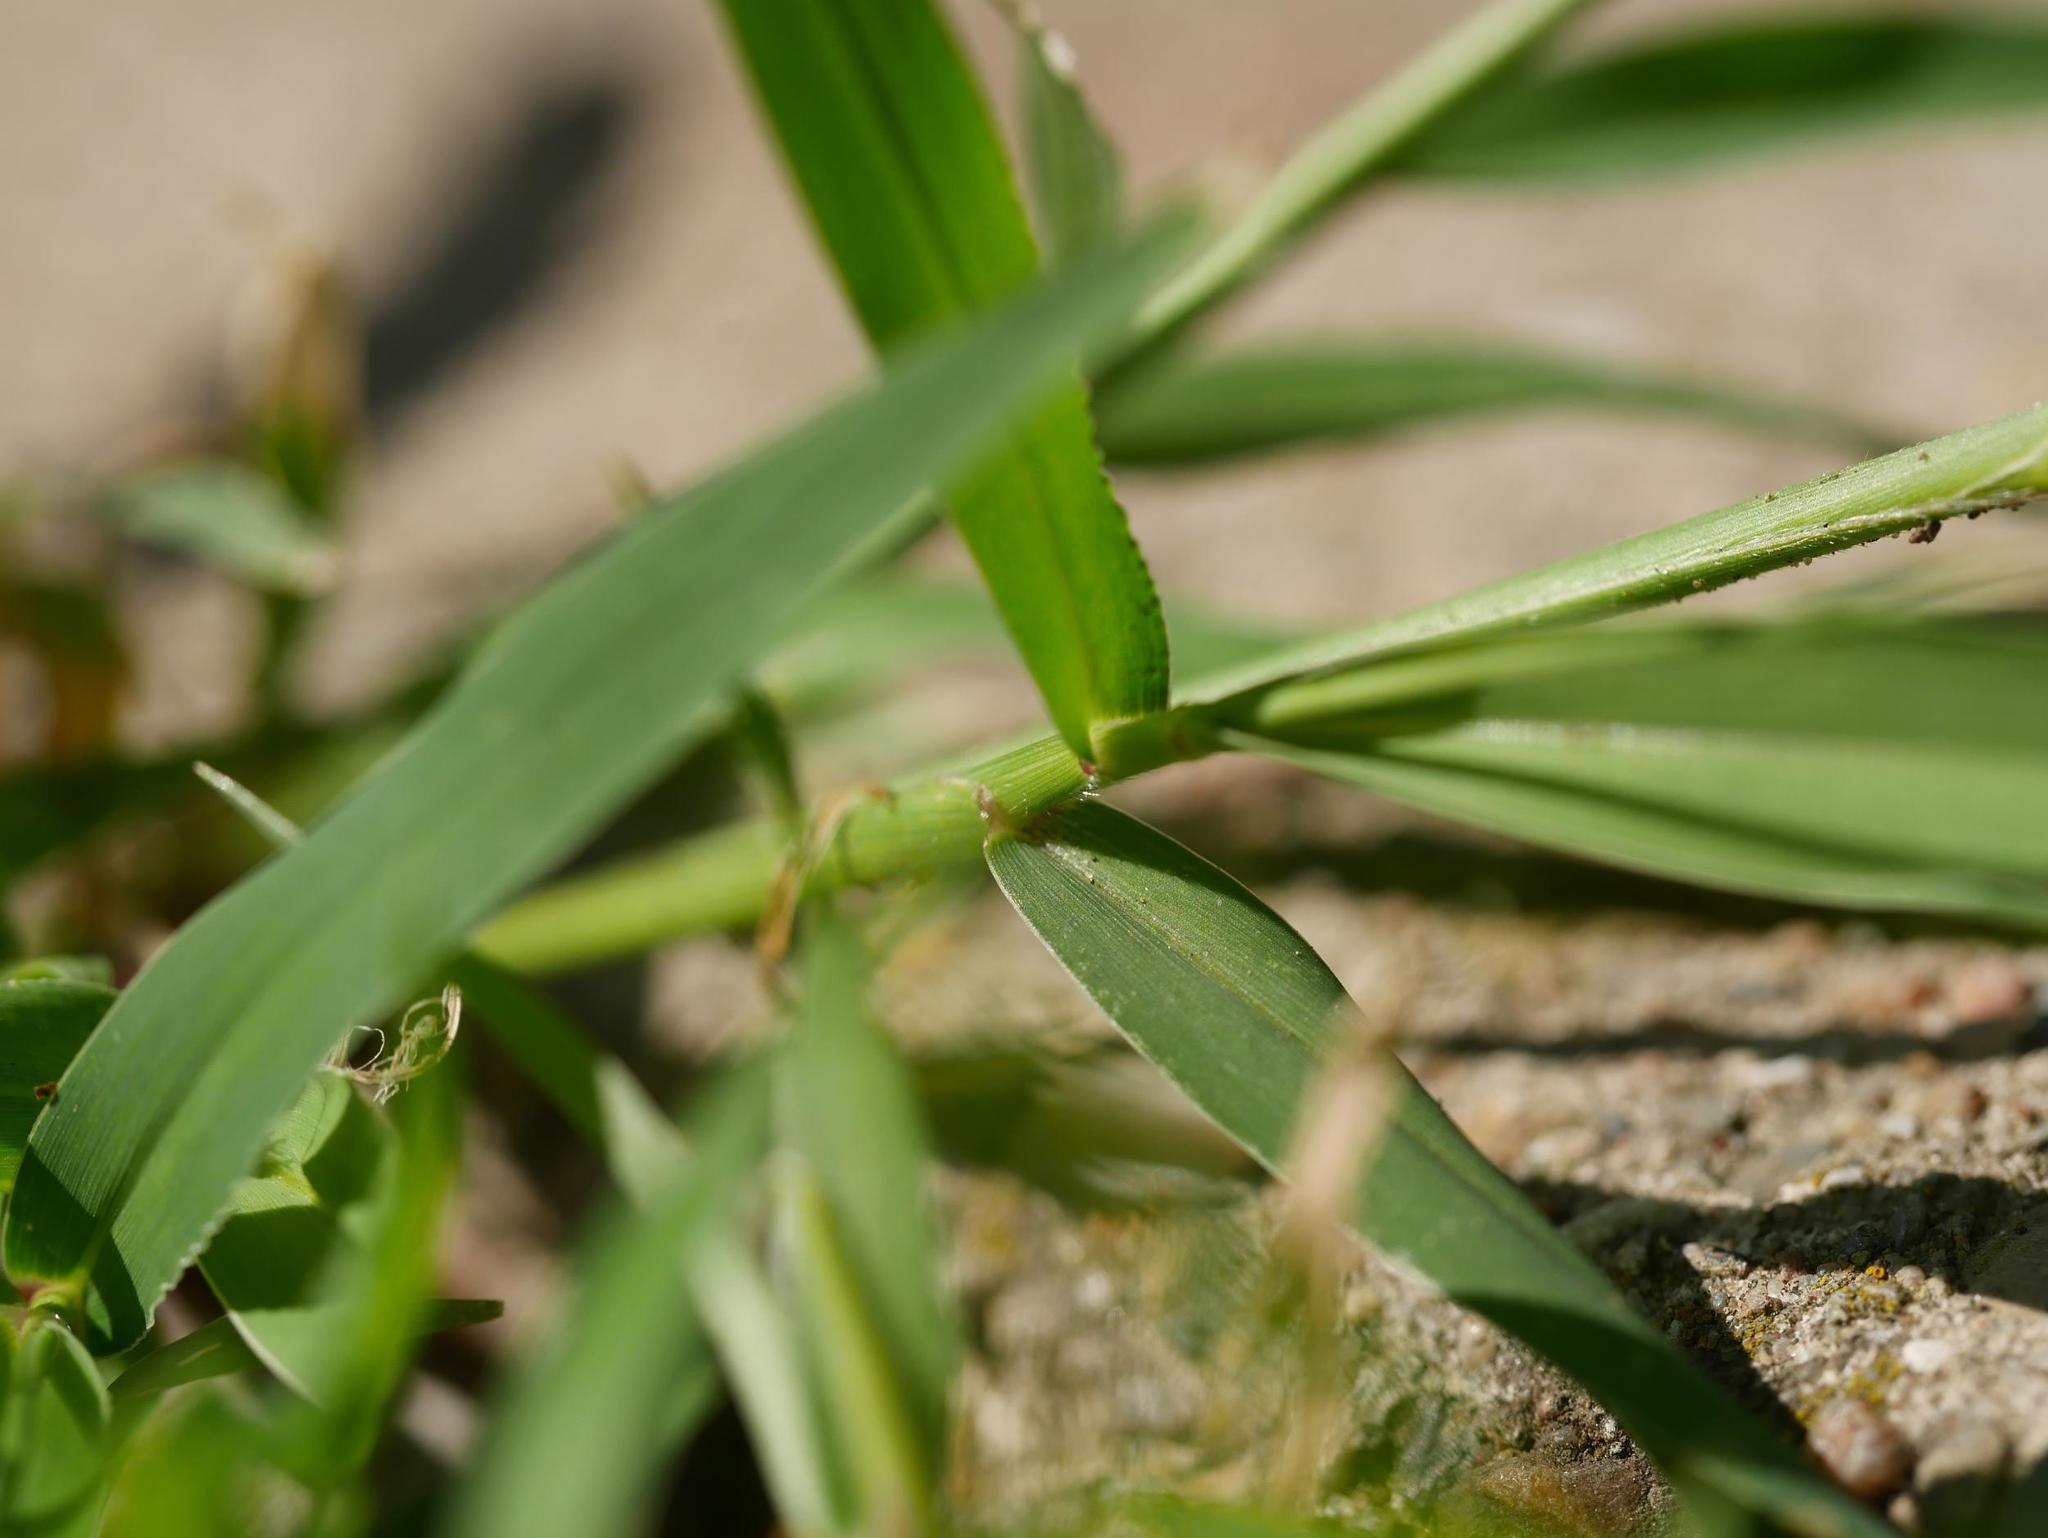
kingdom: Plantae
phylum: Tracheophyta
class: Liliopsida
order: Poales
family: Poaceae
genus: Setaria
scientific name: Setaria viridis
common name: Green bristlegrass
